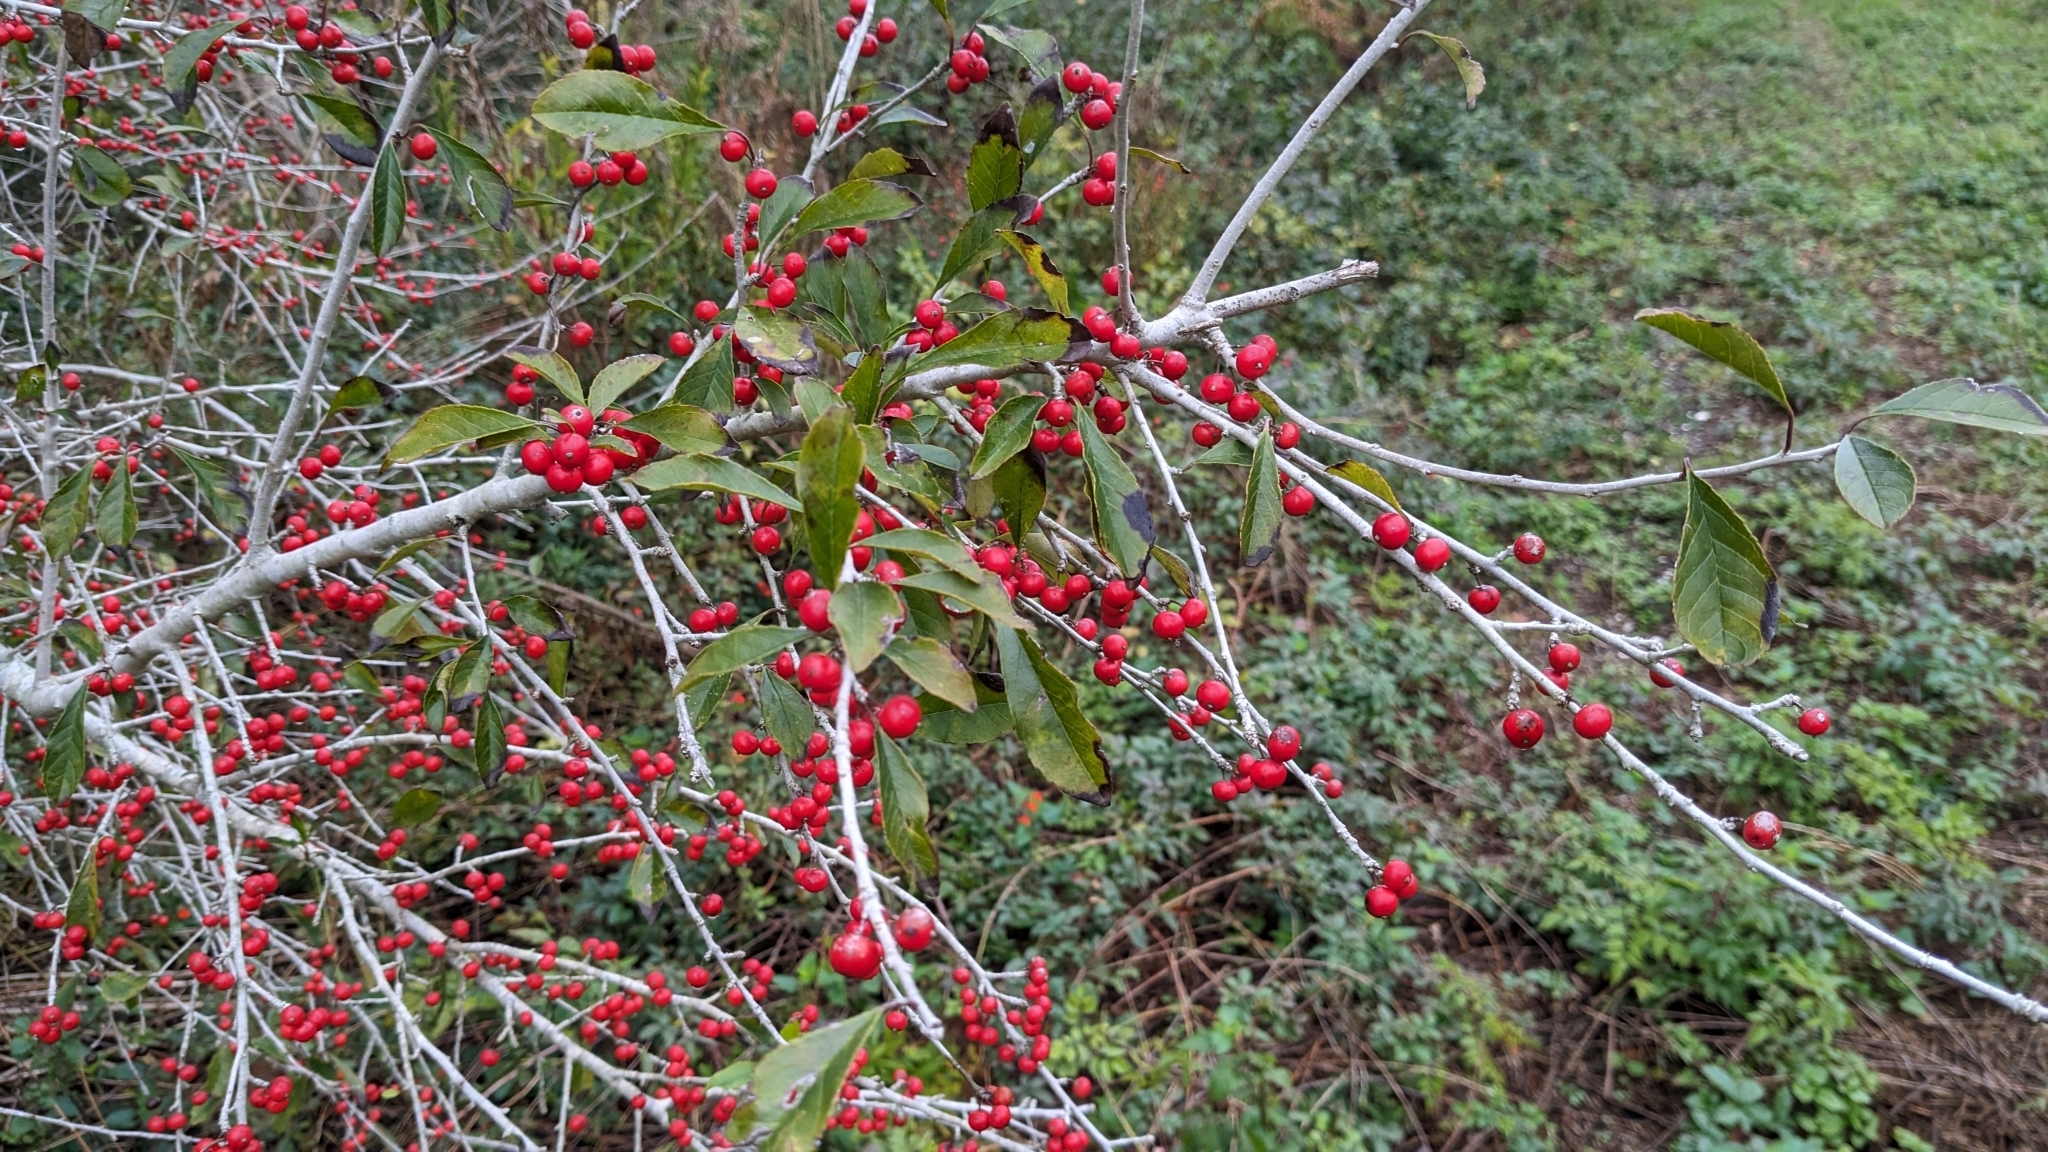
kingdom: Plantae
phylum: Tracheophyta
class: Magnoliopsida
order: Aquifoliales
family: Aquifoliaceae
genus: Ilex
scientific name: Ilex decidua
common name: Possum-haw
